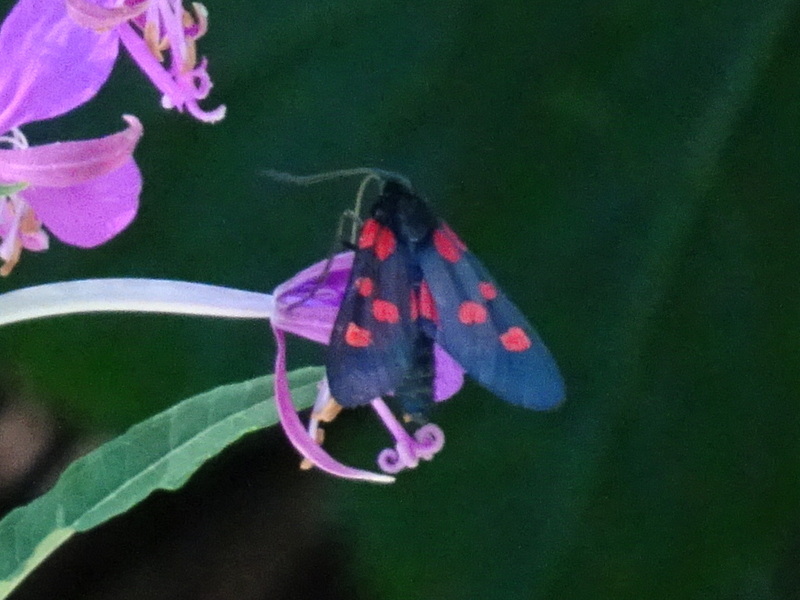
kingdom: Animalia
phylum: Arthropoda
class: Insecta
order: Lepidoptera
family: Zygaenidae
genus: Zygaena
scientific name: Zygaena lonicerae
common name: Narrow-bordered five-spot burnet
